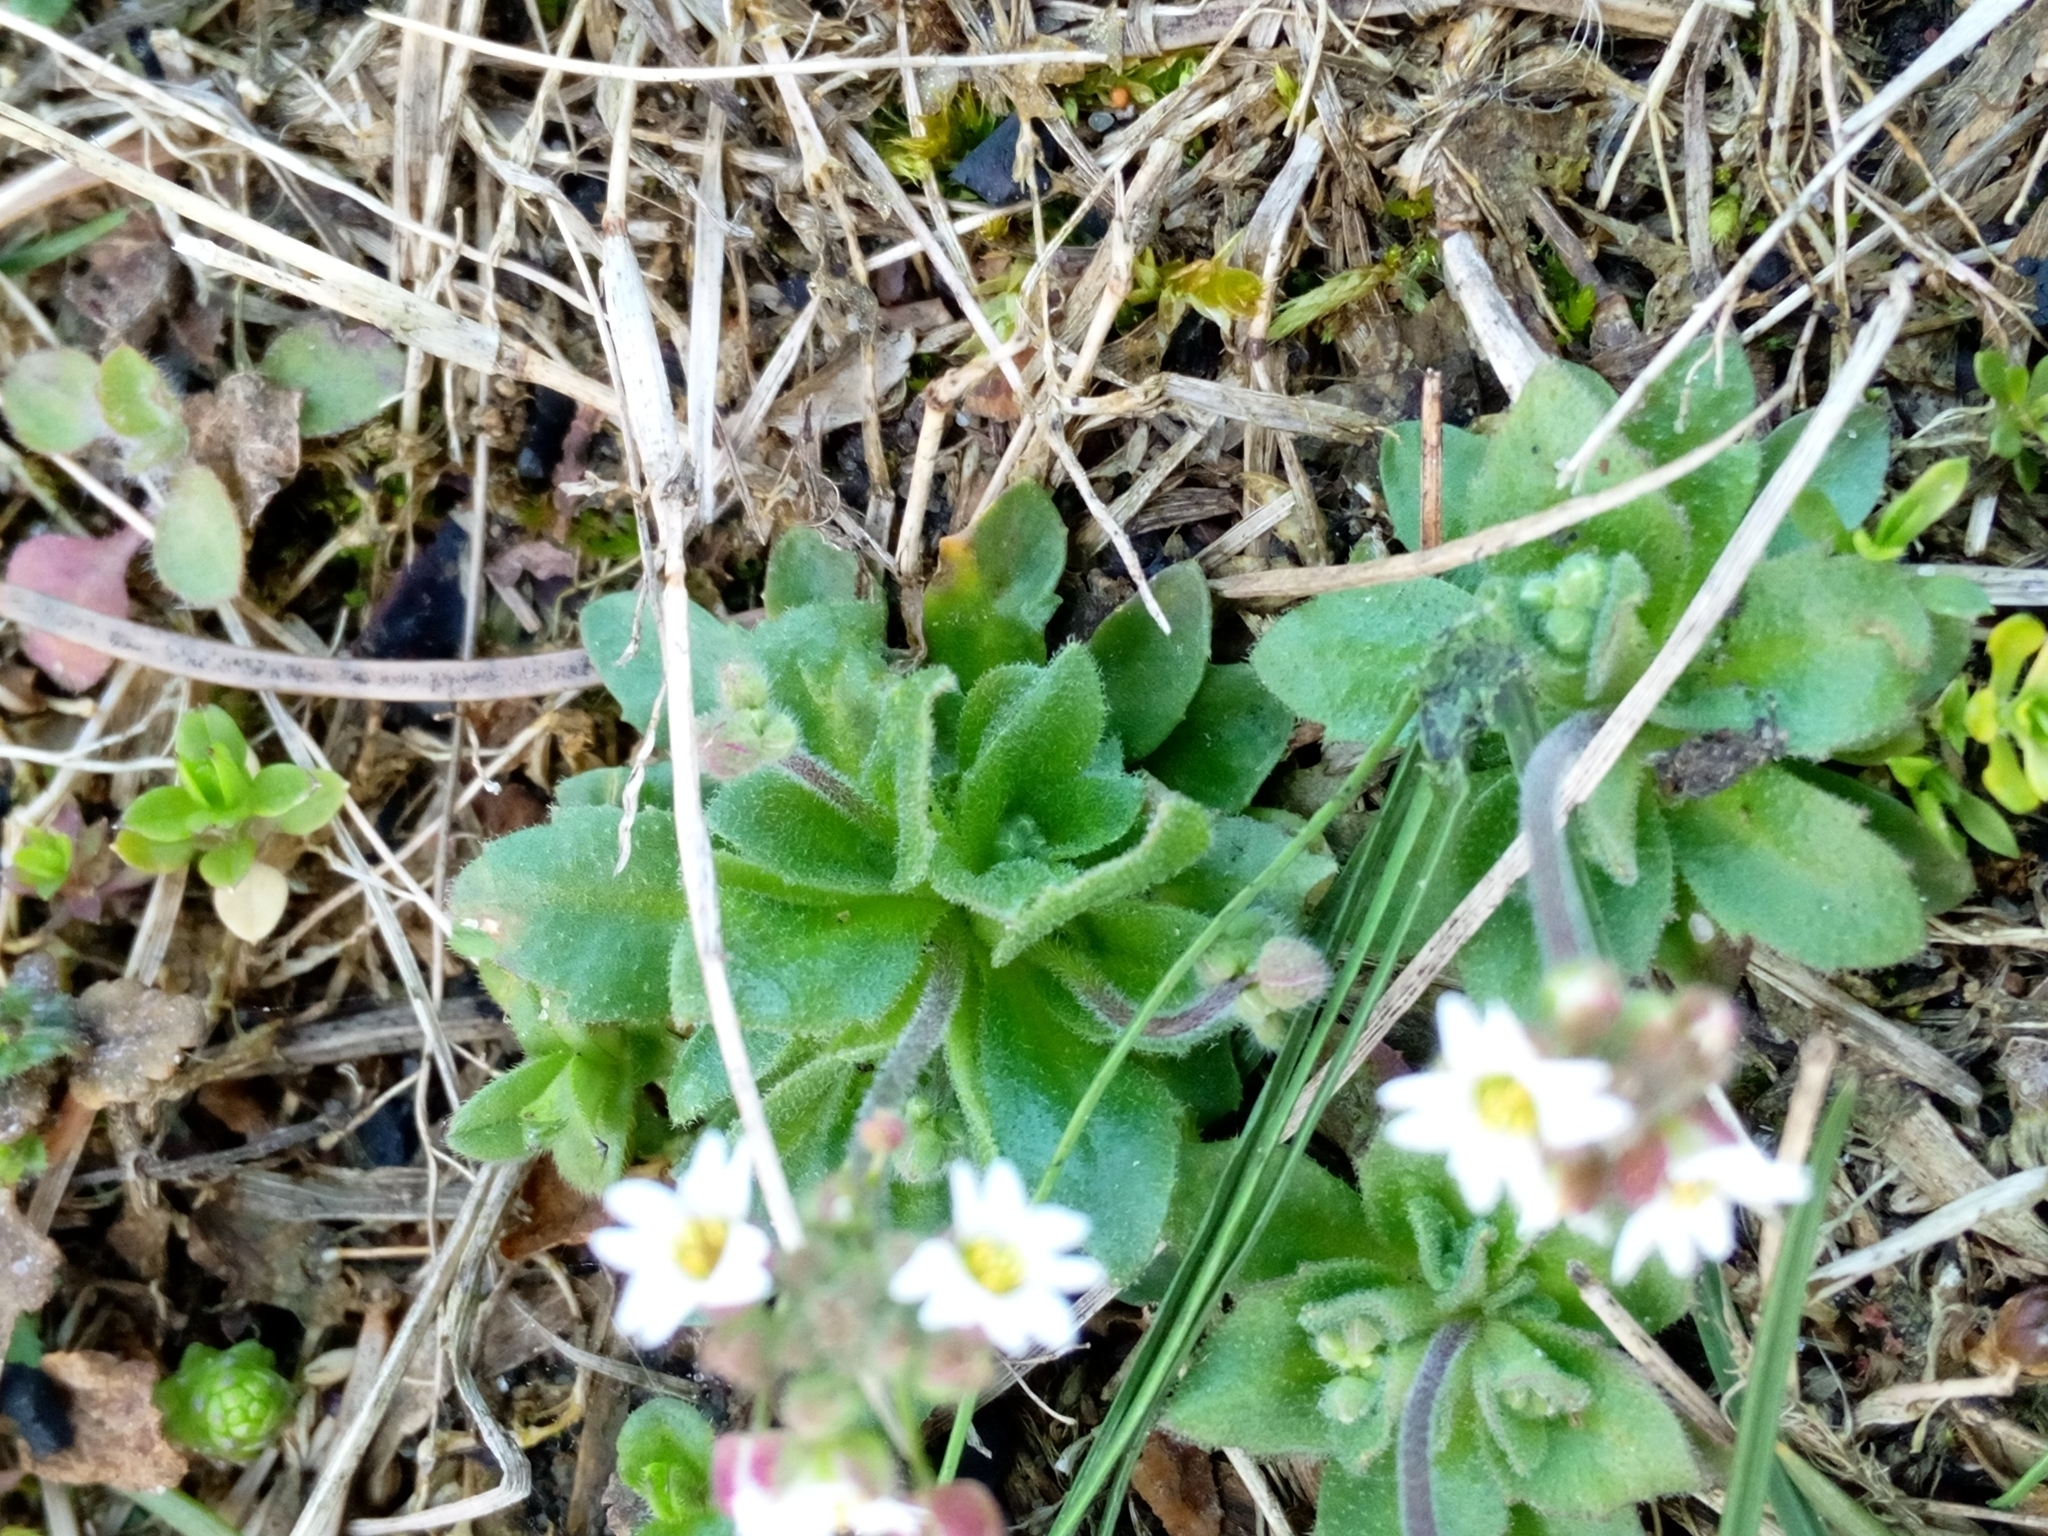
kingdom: Plantae
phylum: Tracheophyta
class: Magnoliopsida
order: Brassicales
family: Brassicaceae
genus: Draba
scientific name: Draba verna
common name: Spring draba
